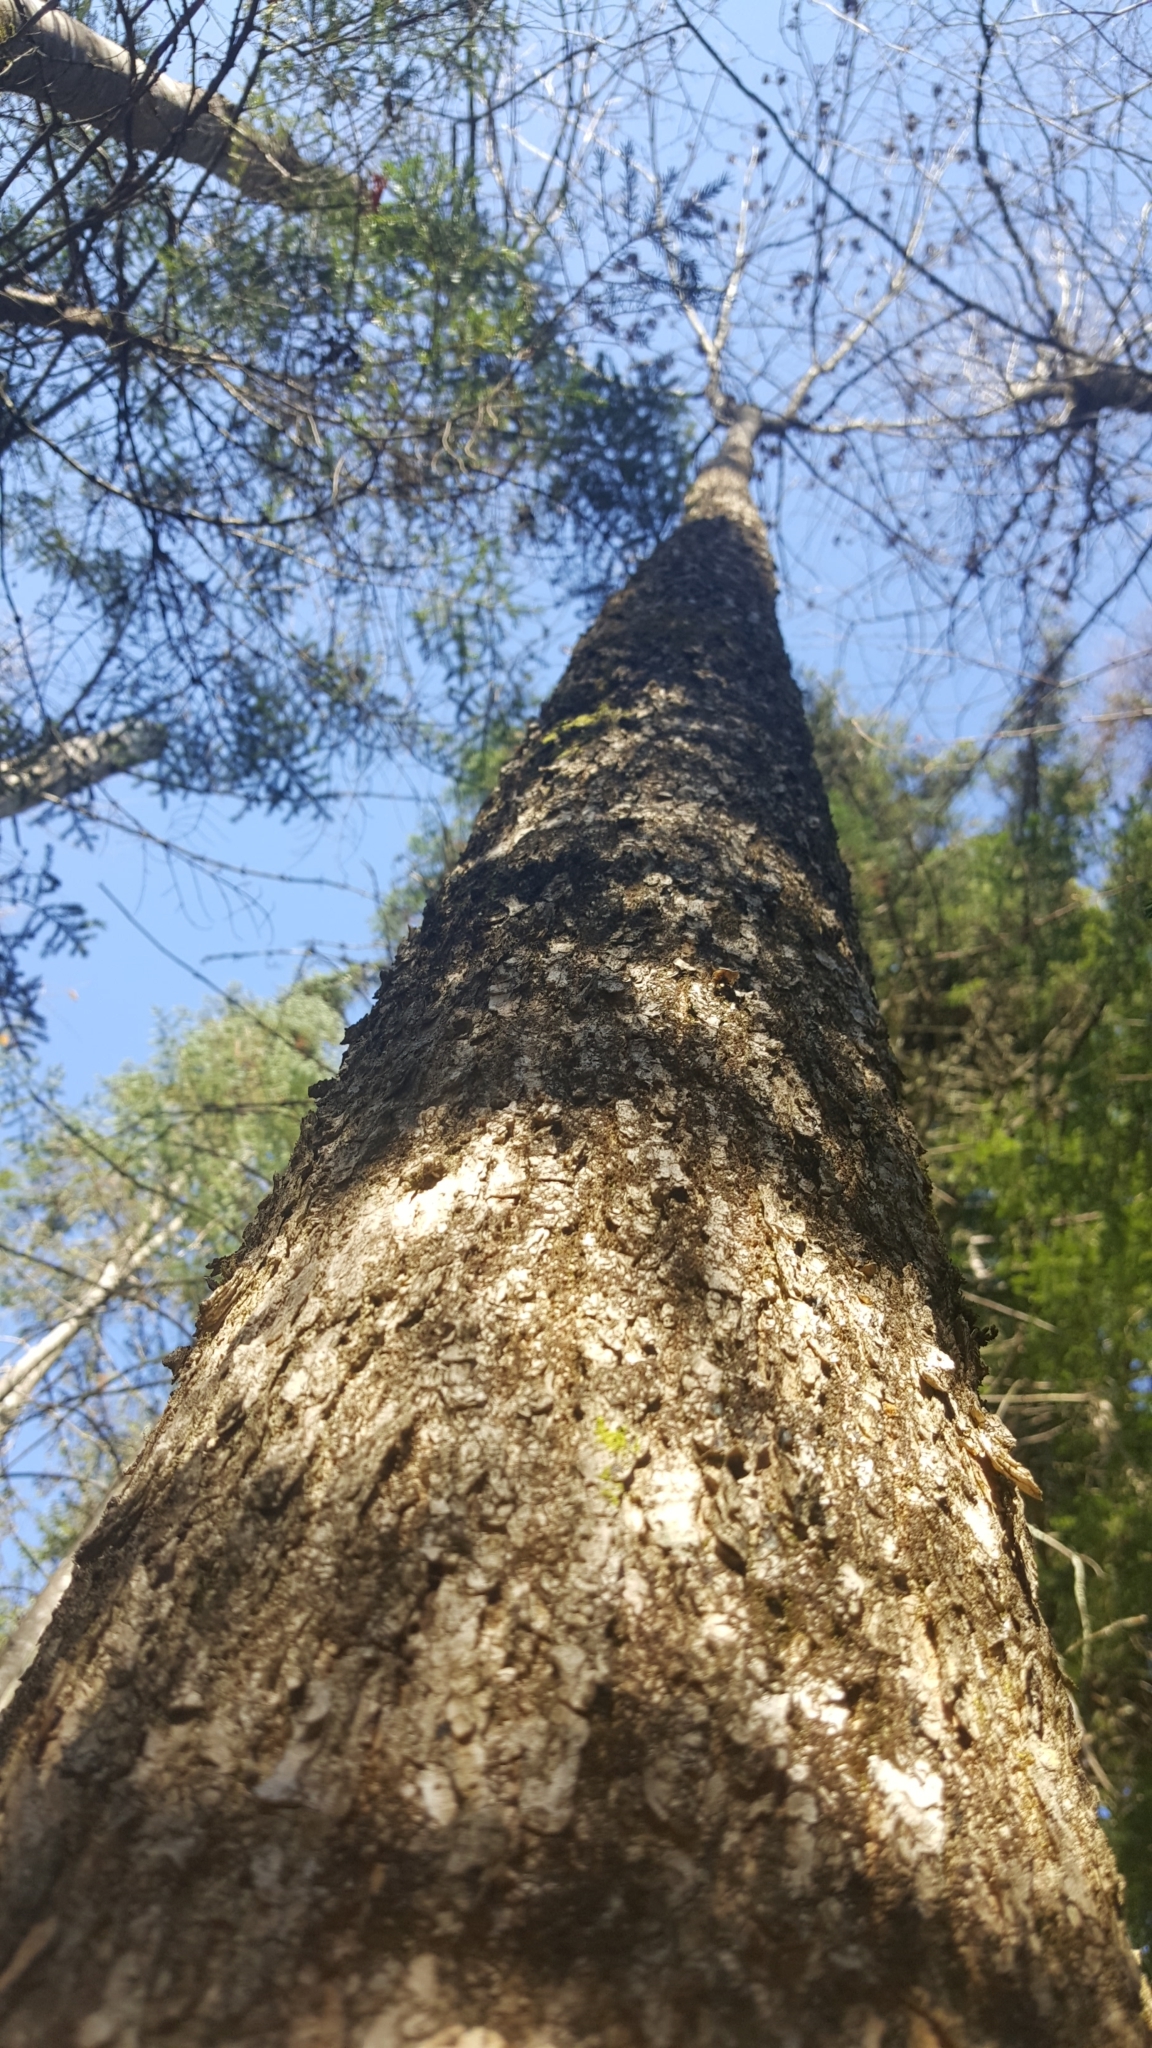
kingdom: Plantae
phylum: Tracheophyta
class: Magnoliopsida
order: Lamiales
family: Oleaceae
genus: Fraxinus
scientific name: Fraxinus nigra
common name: Black ash
